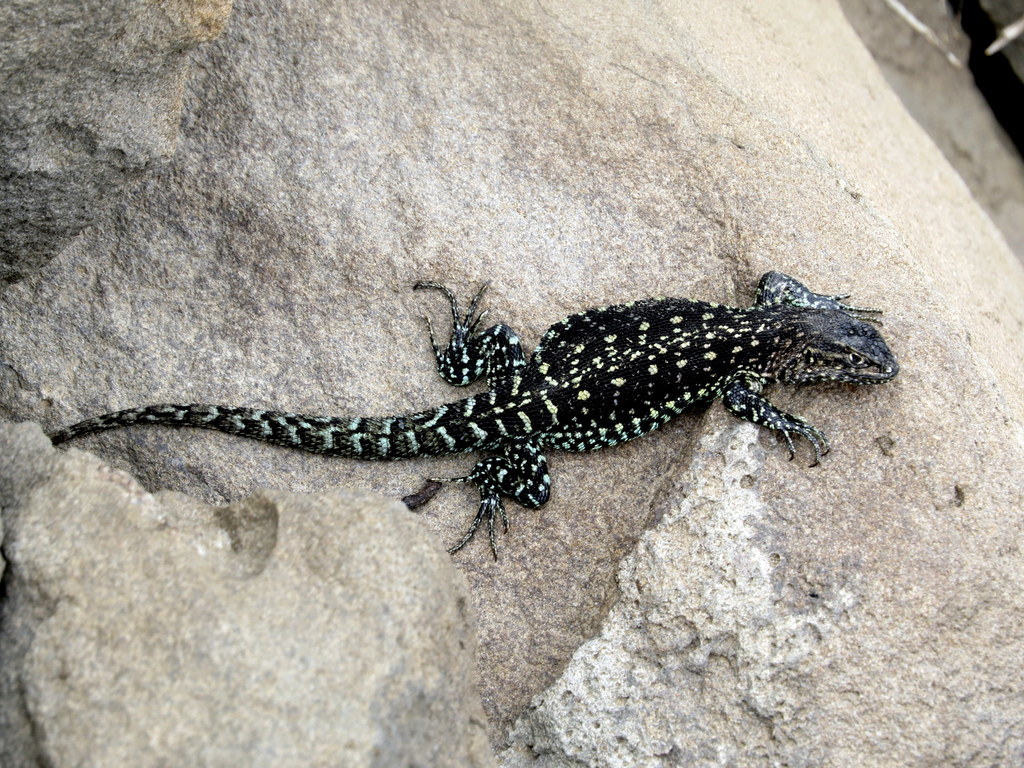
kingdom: Animalia
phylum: Chordata
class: Squamata
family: Liolaemidae
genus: Liolaemus
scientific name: Liolaemus baguali
